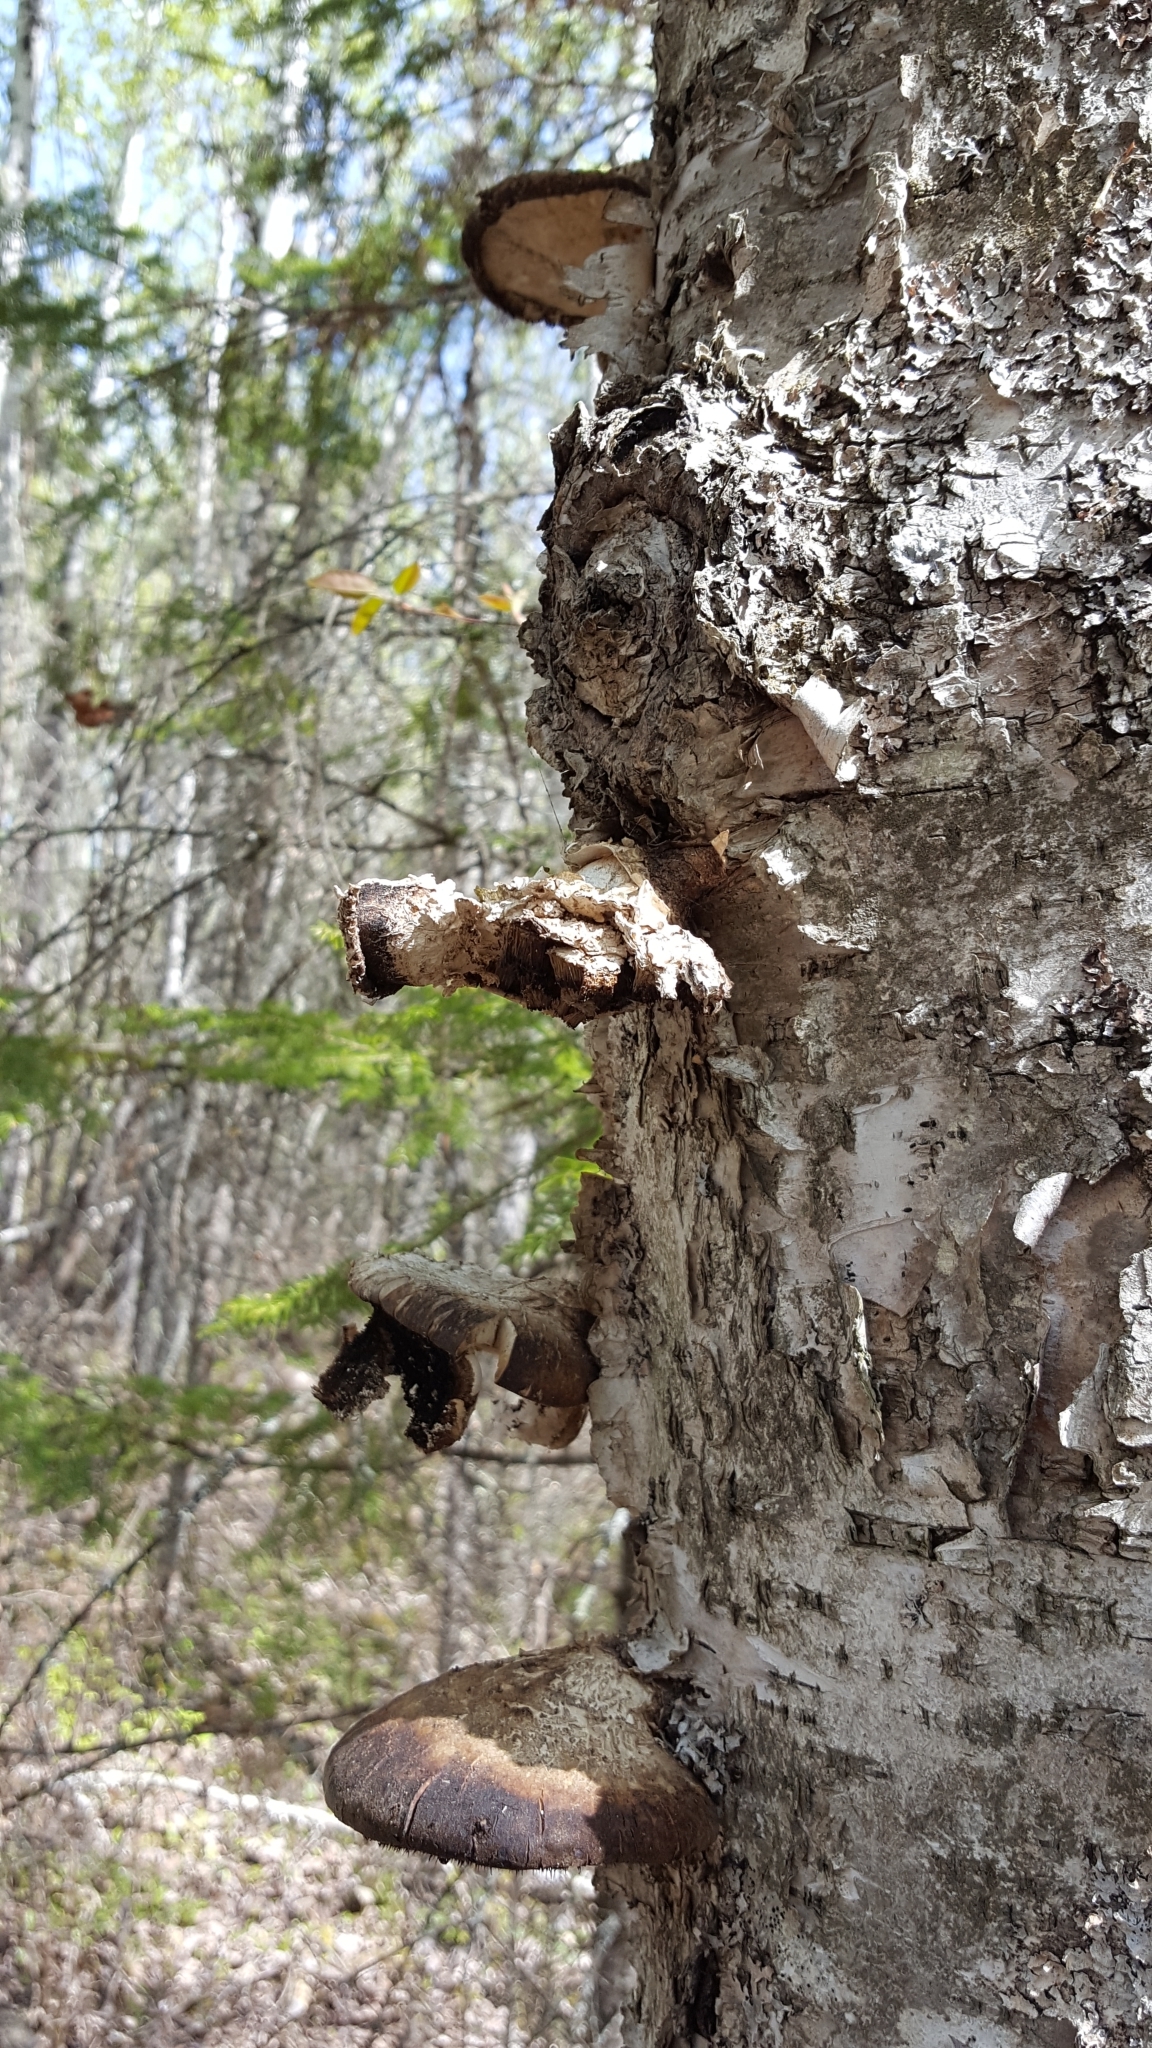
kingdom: Fungi
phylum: Basidiomycota
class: Agaricomycetes
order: Polyporales
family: Fomitopsidaceae
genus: Fomitopsis
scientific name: Fomitopsis betulina
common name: Birch polypore
